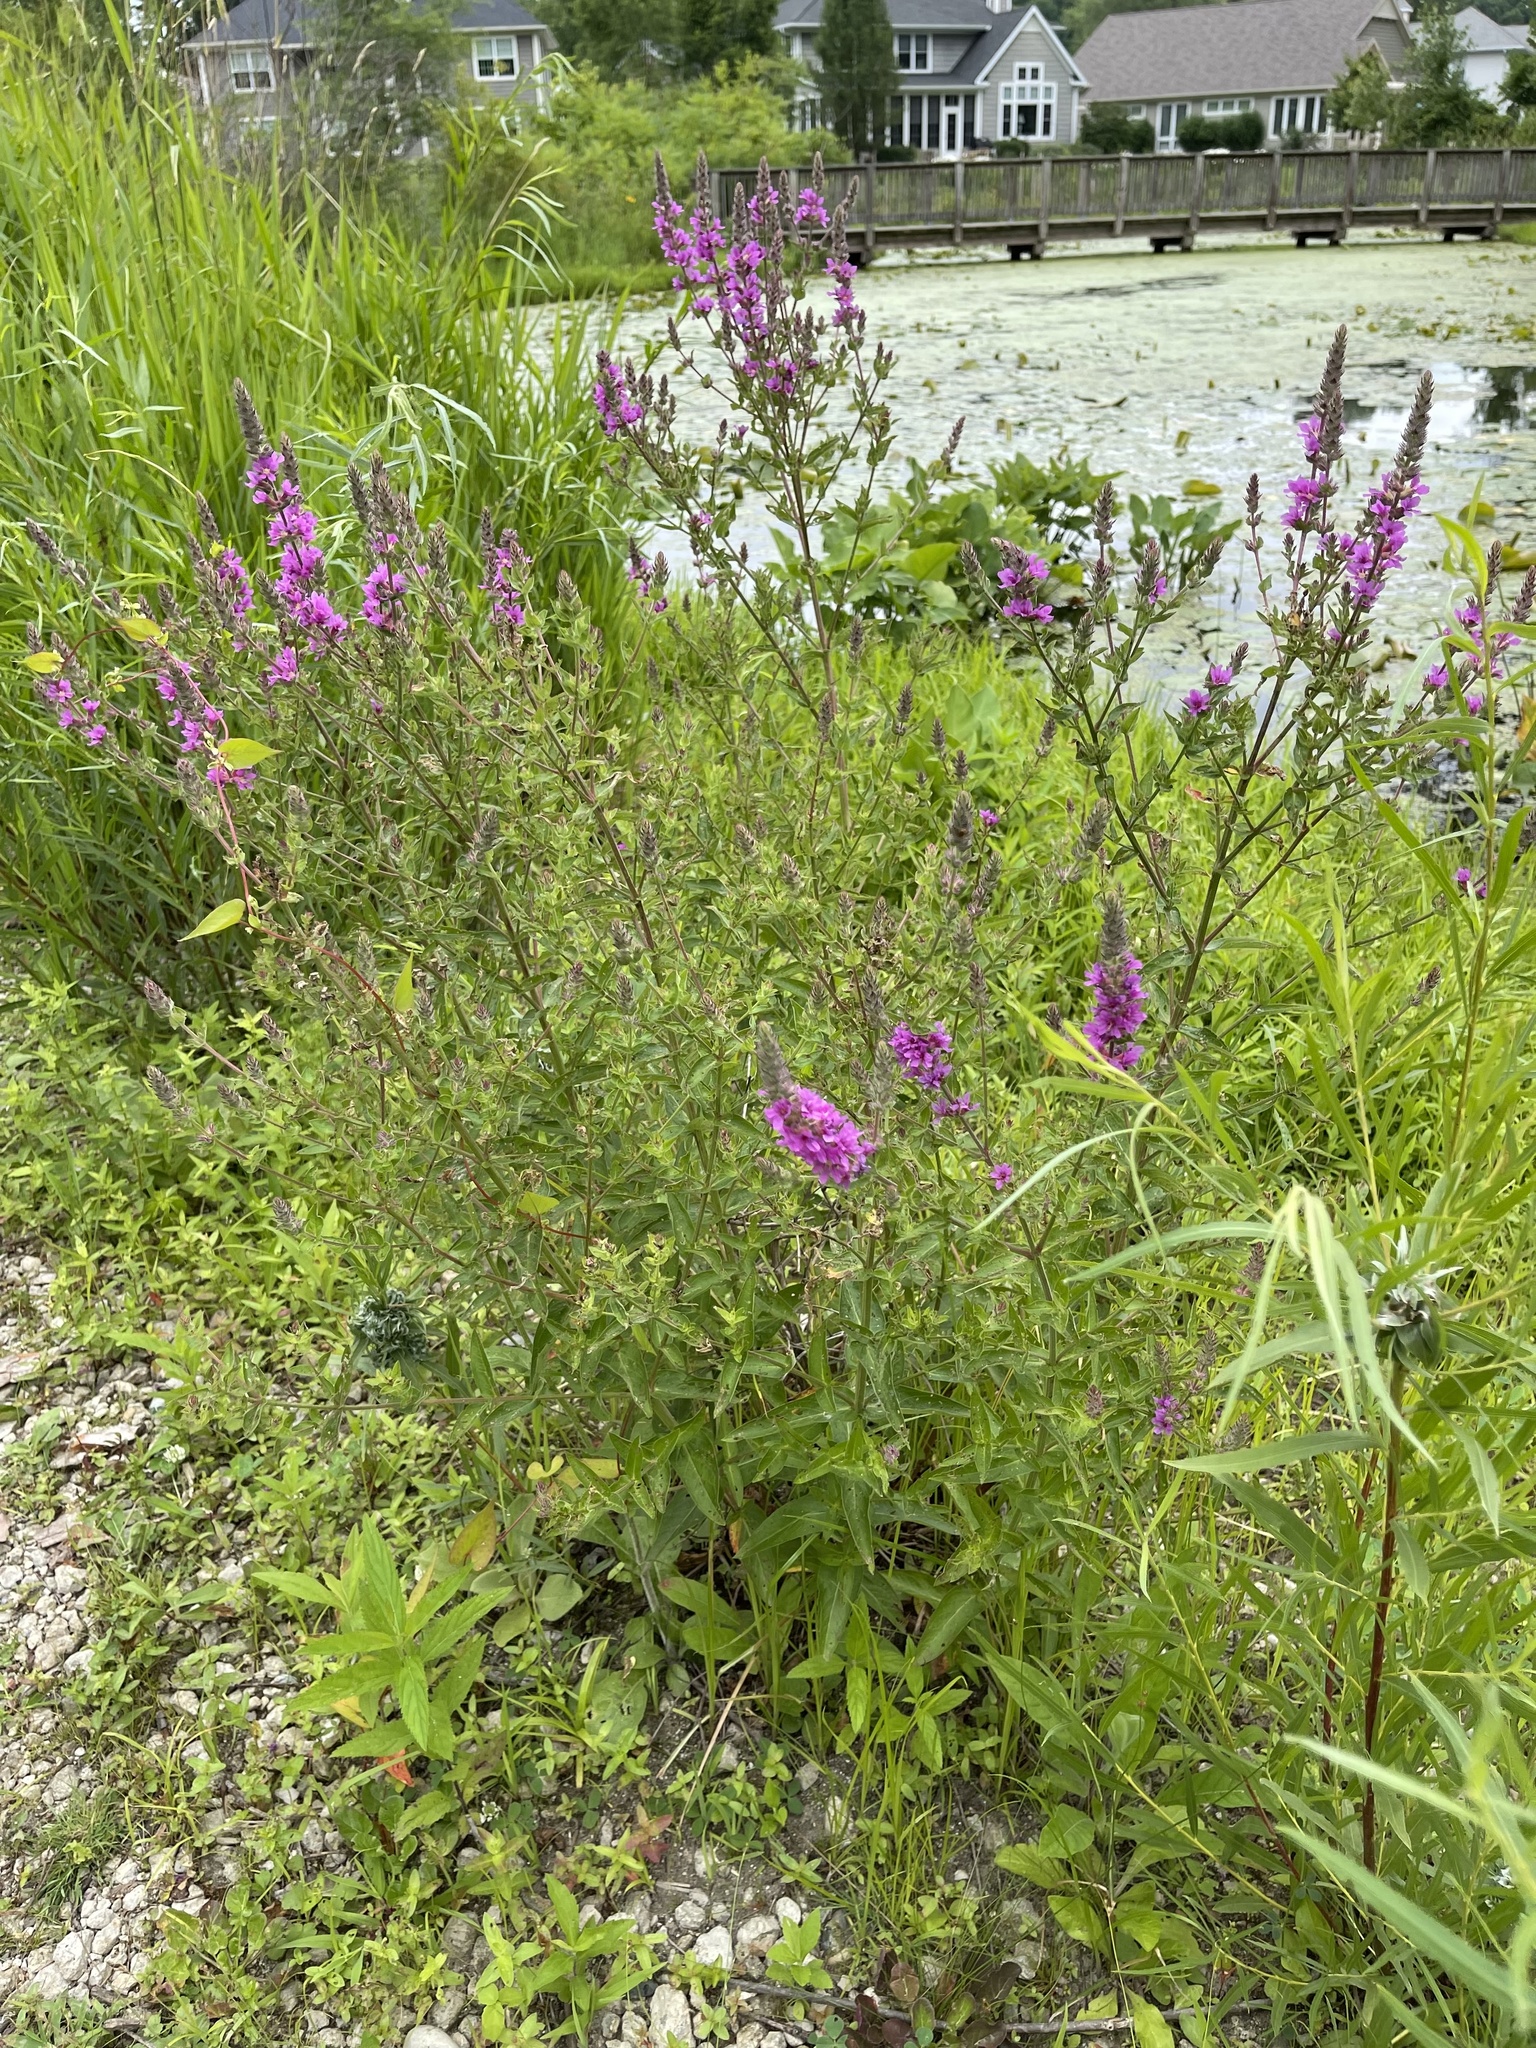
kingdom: Plantae
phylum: Tracheophyta
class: Magnoliopsida
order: Myrtales
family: Lythraceae
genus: Lythrum
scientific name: Lythrum salicaria
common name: Purple loosestrife
